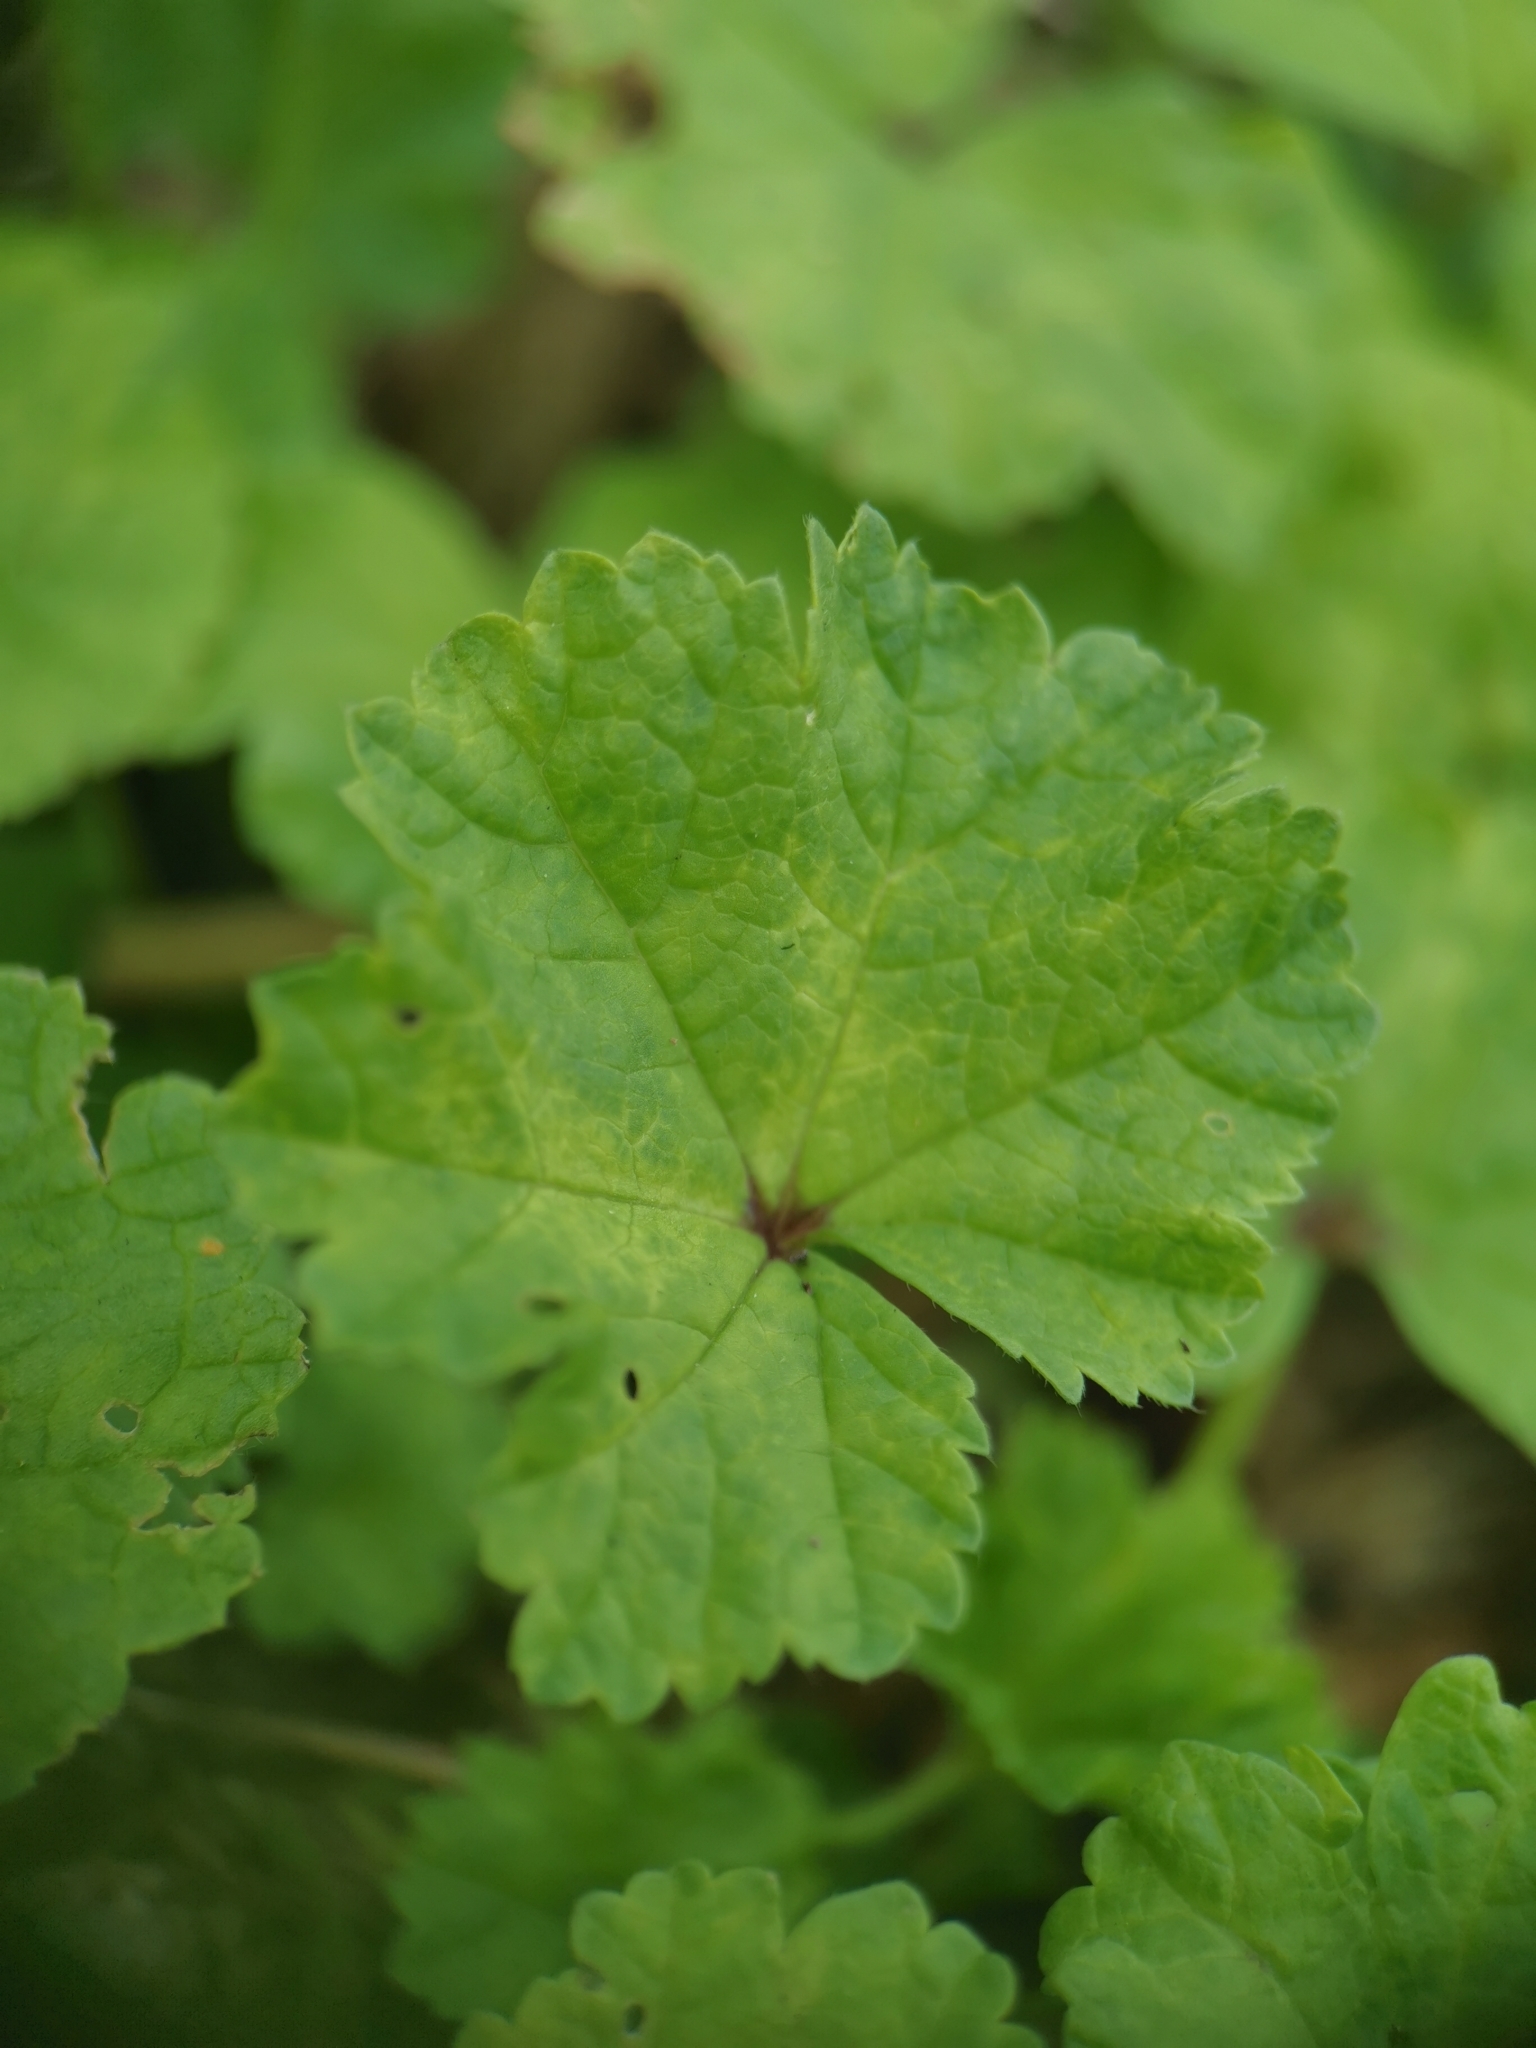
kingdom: Plantae
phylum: Tracheophyta
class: Magnoliopsida
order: Malvales
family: Malvaceae
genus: Malva
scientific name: Malva neglecta
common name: Common mallow
